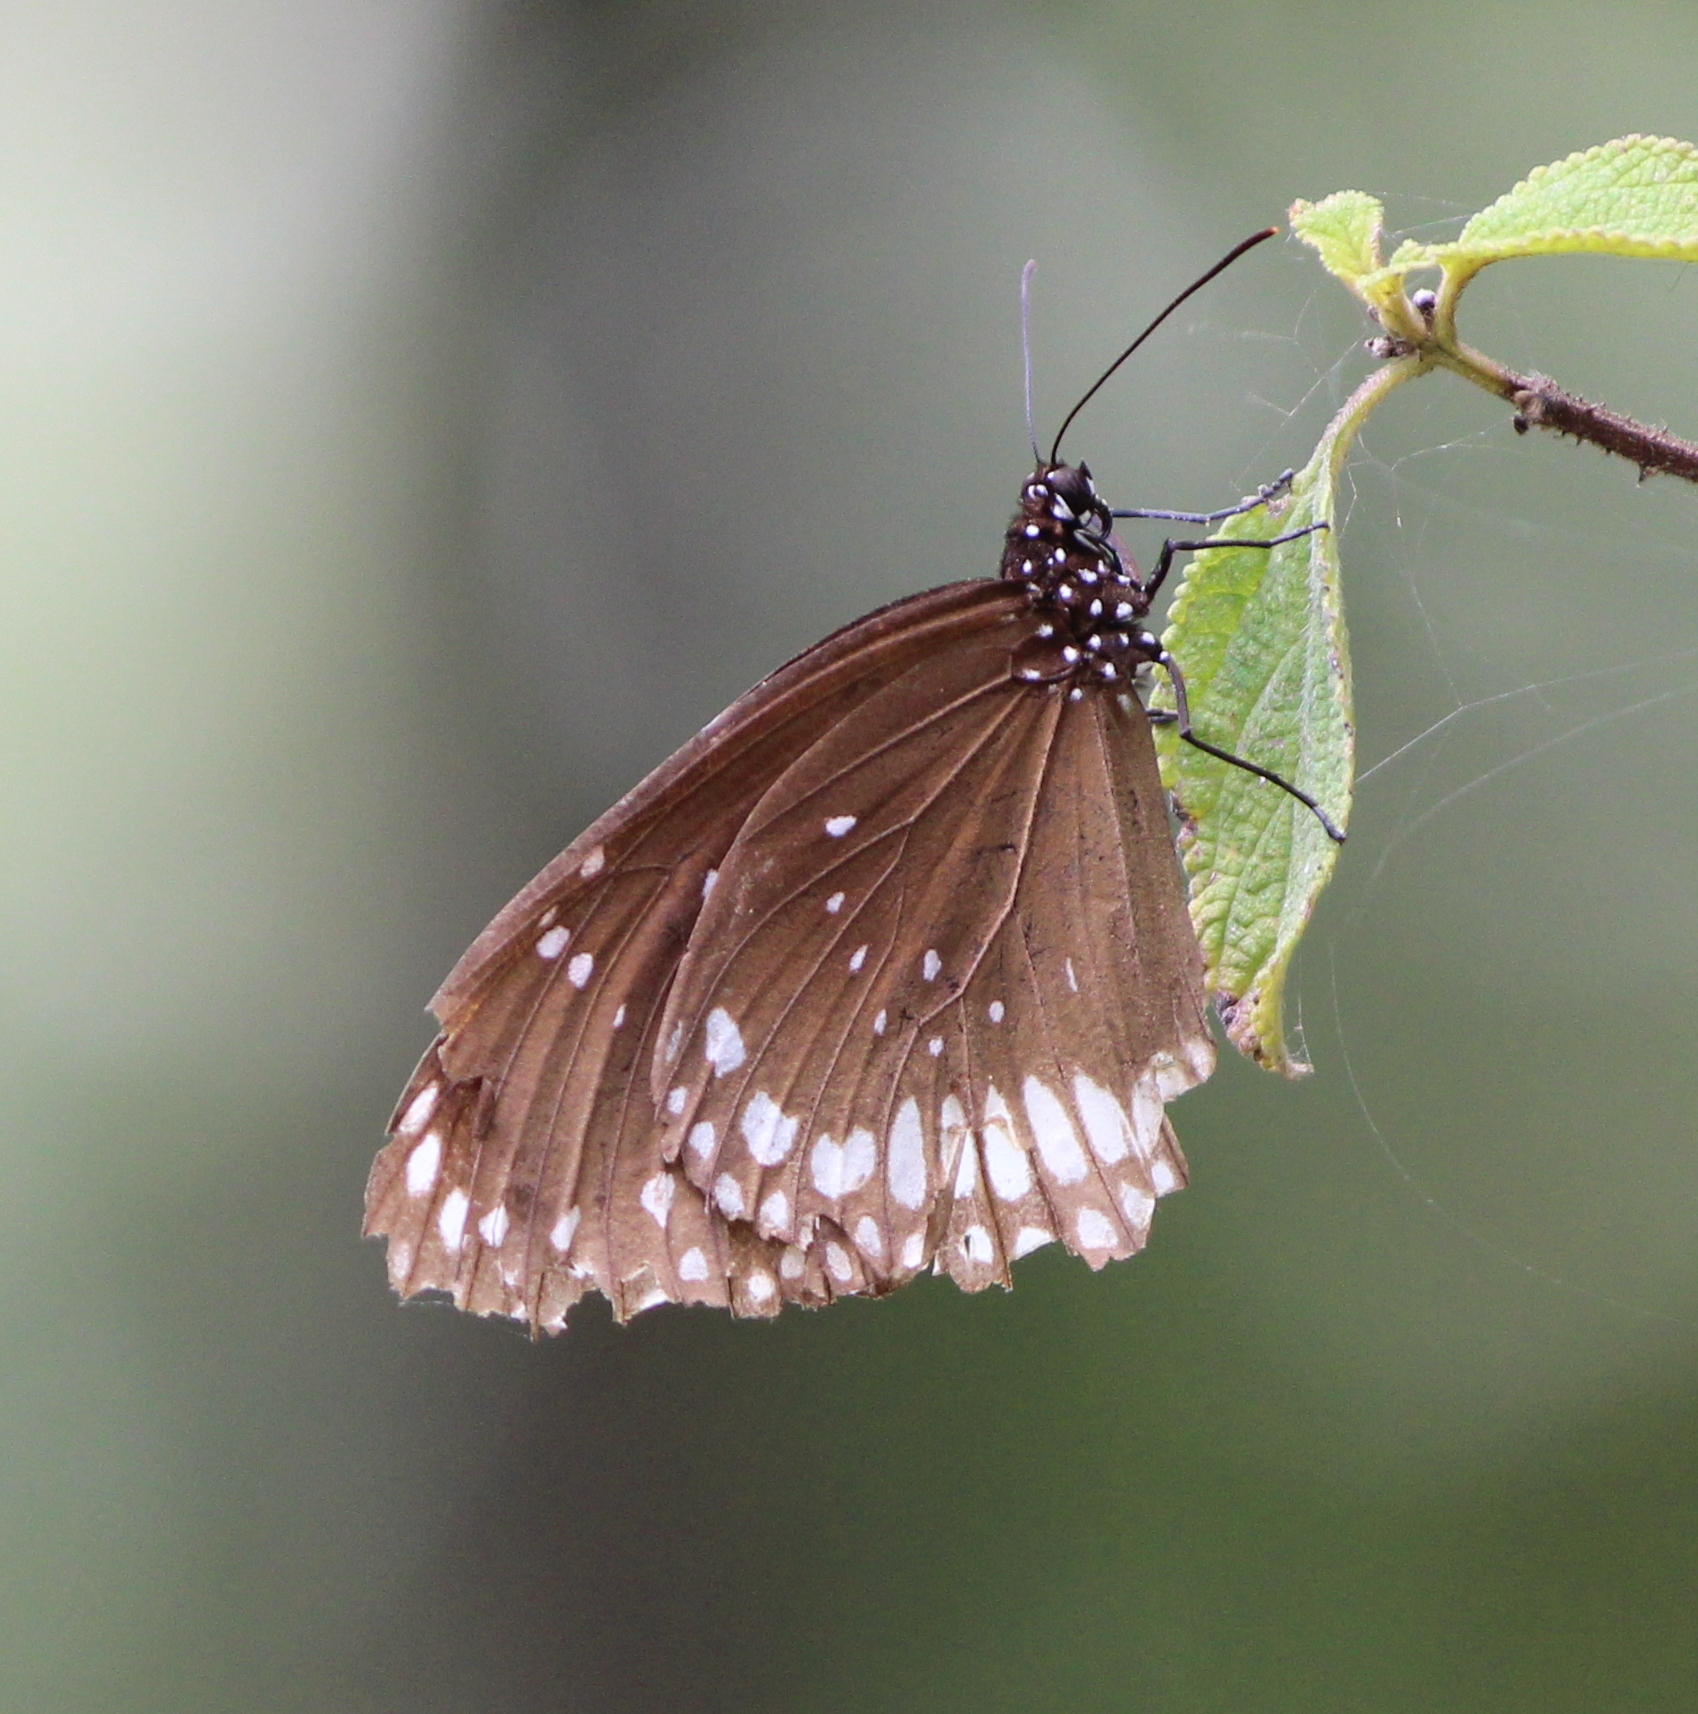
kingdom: Animalia
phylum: Arthropoda
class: Insecta
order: Lepidoptera
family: Nymphalidae
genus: Euploea
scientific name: Euploea sylvester
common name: Double-branded crow butterfly
